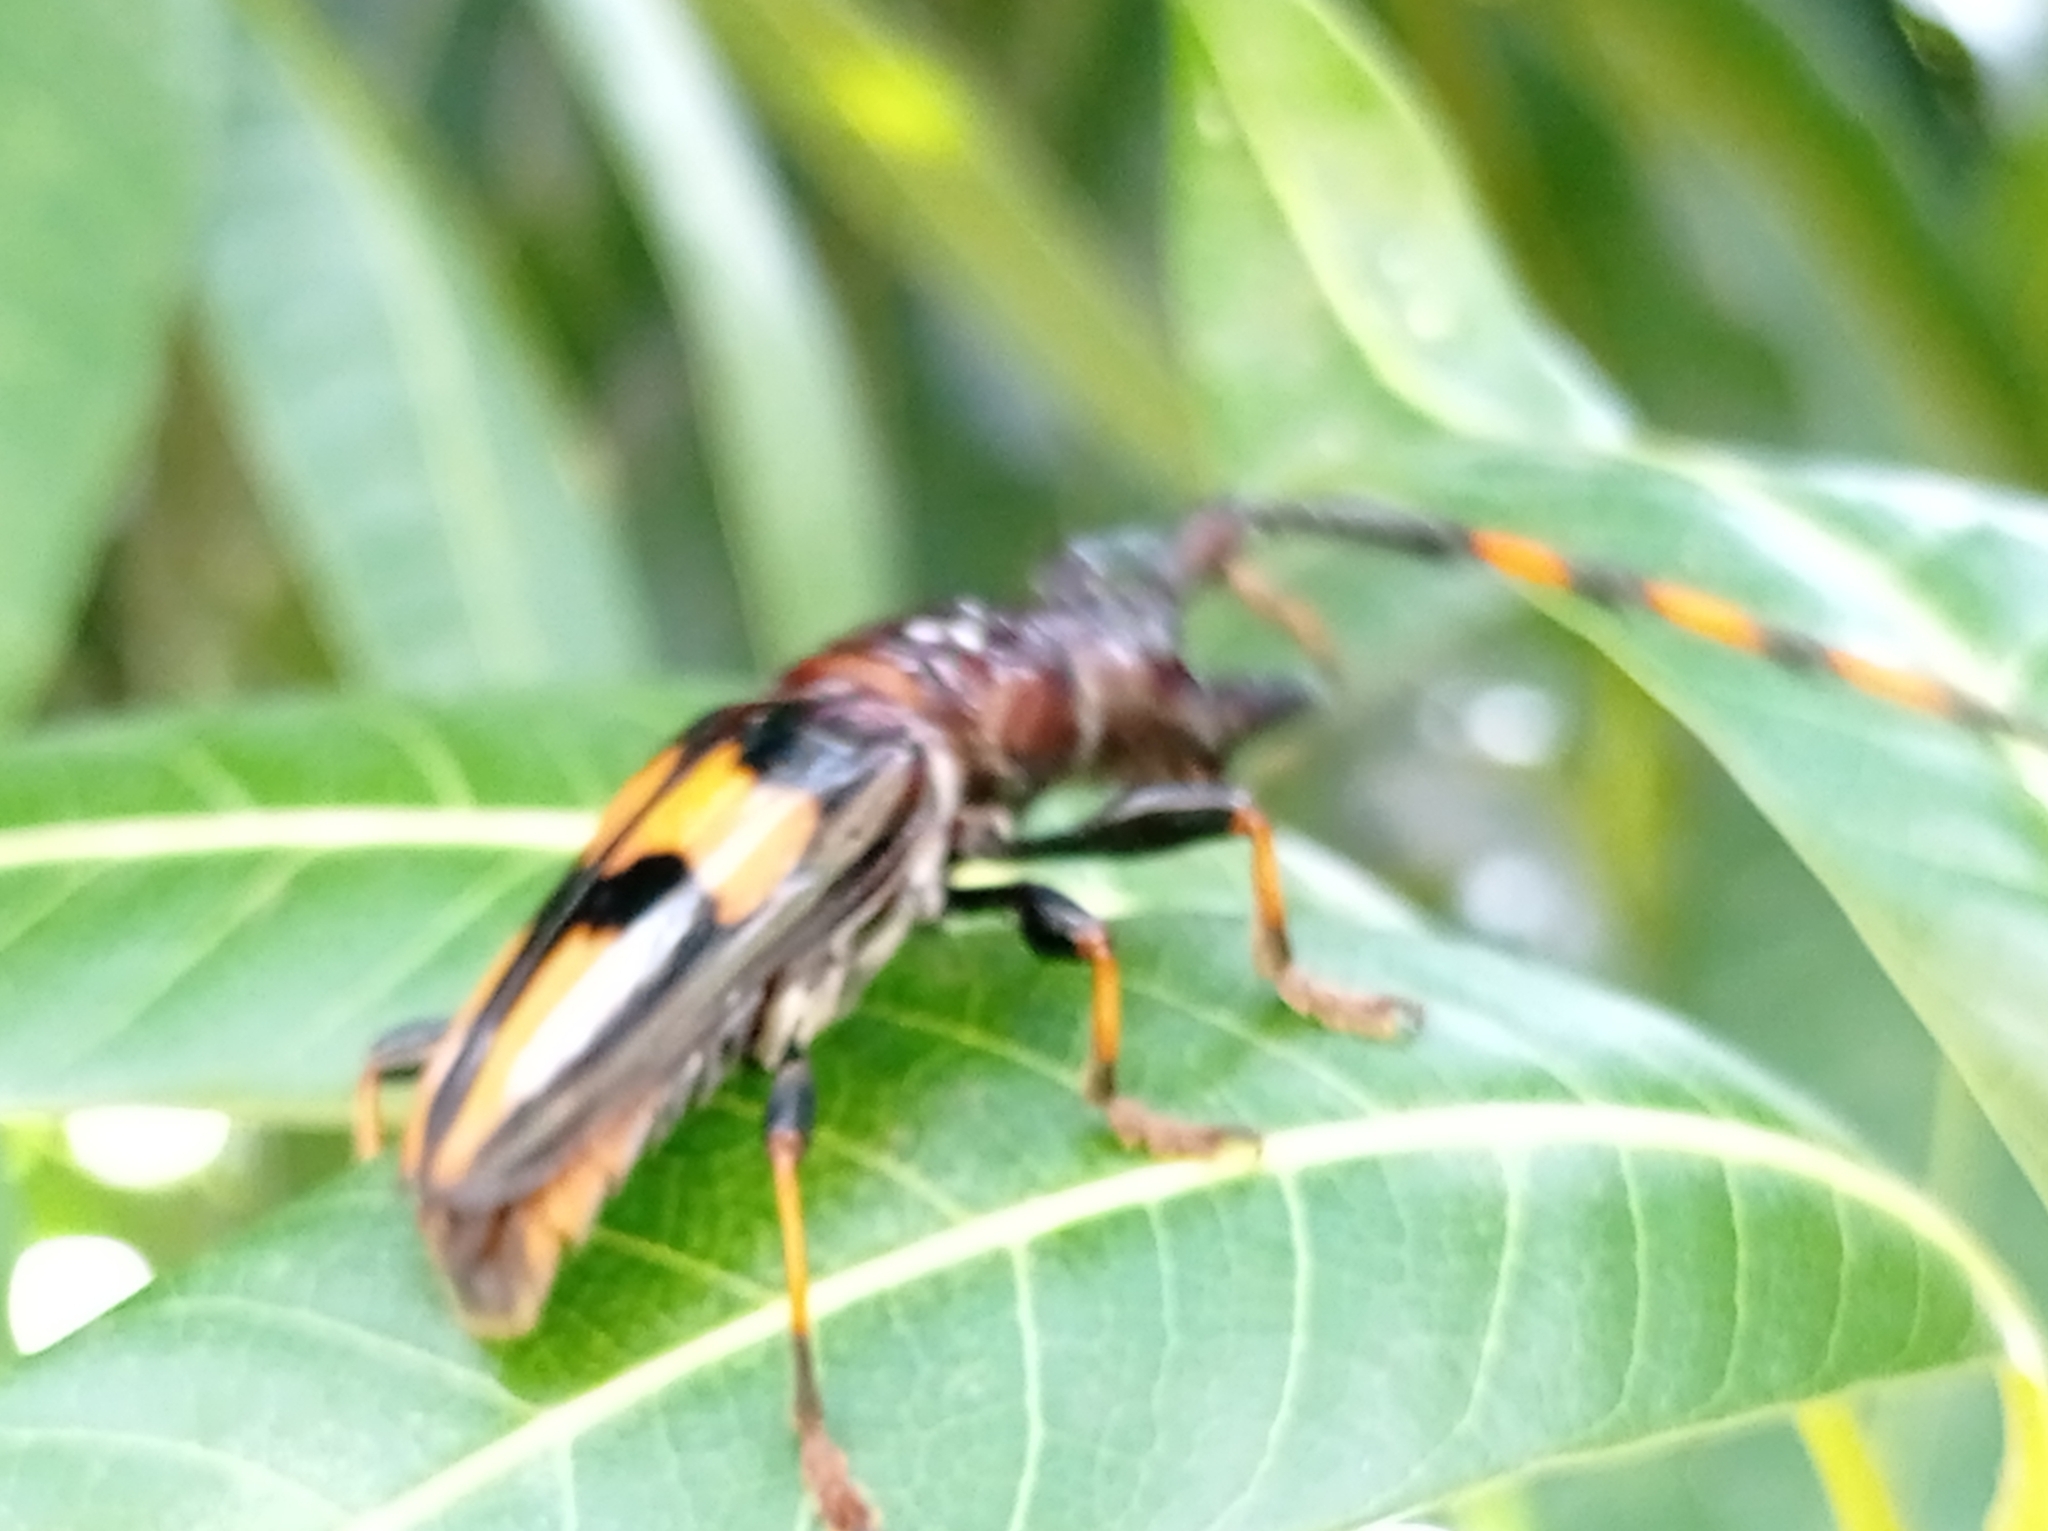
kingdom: Animalia
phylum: Arthropoda
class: Insecta
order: Coleoptera
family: Cerambycidae
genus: Trachyderes
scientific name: Trachyderes mandibularis
